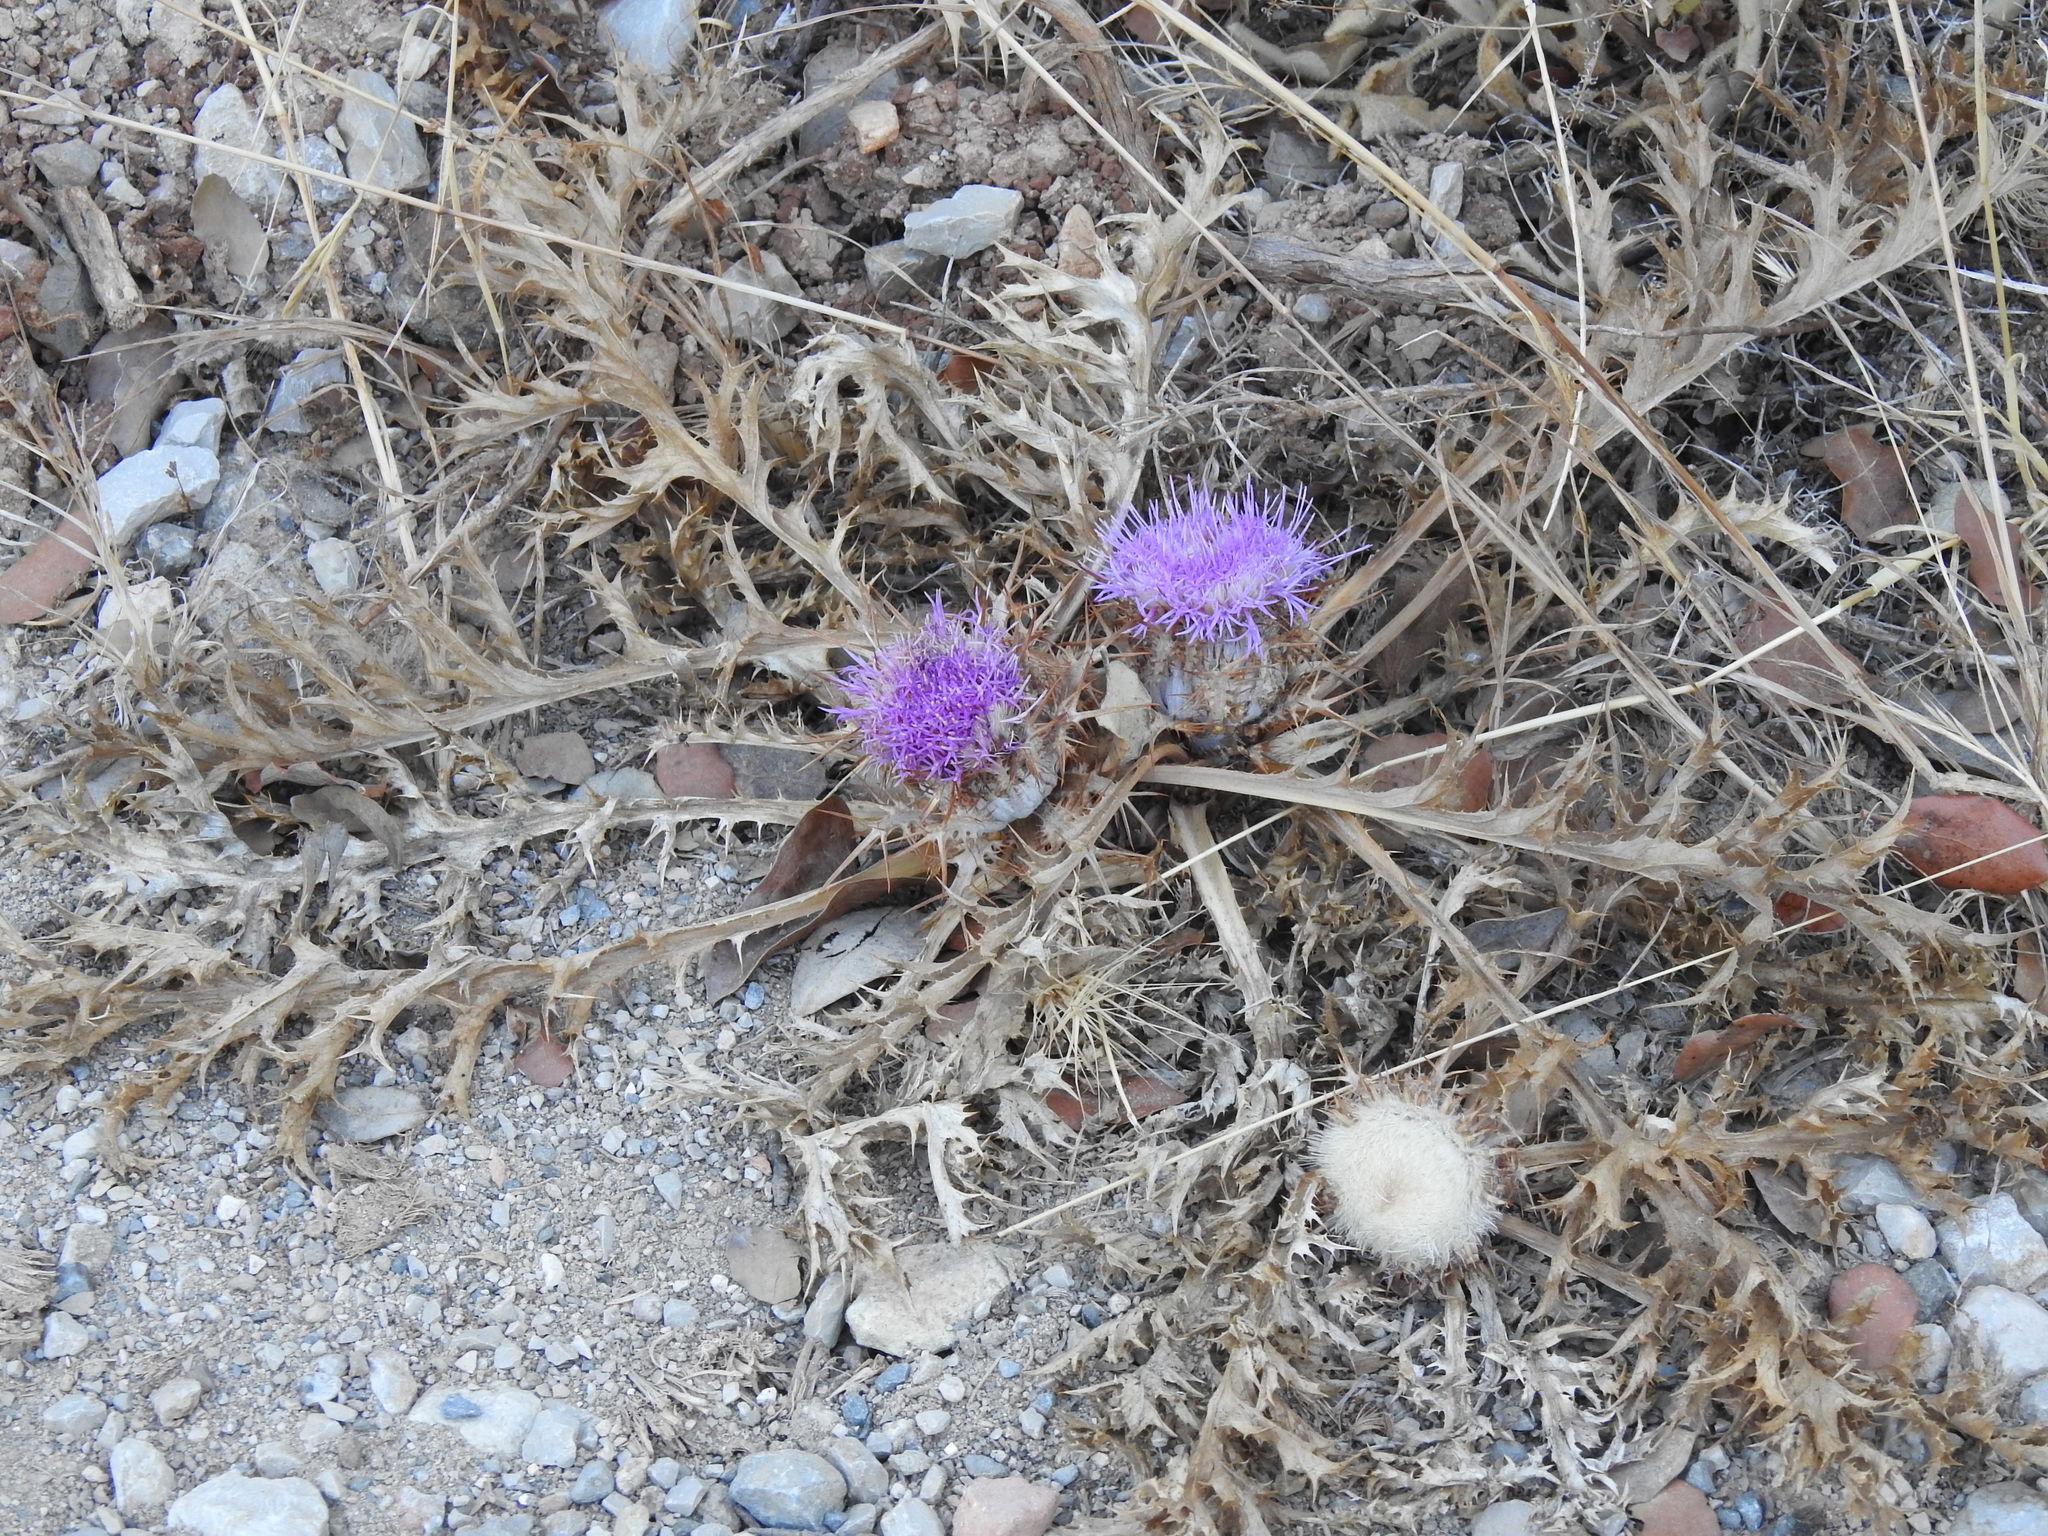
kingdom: Plantae
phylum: Tracheophyta
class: Magnoliopsida
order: Asterales
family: Asteraceae
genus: Chamaeleon
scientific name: Chamaeleon gummifer
